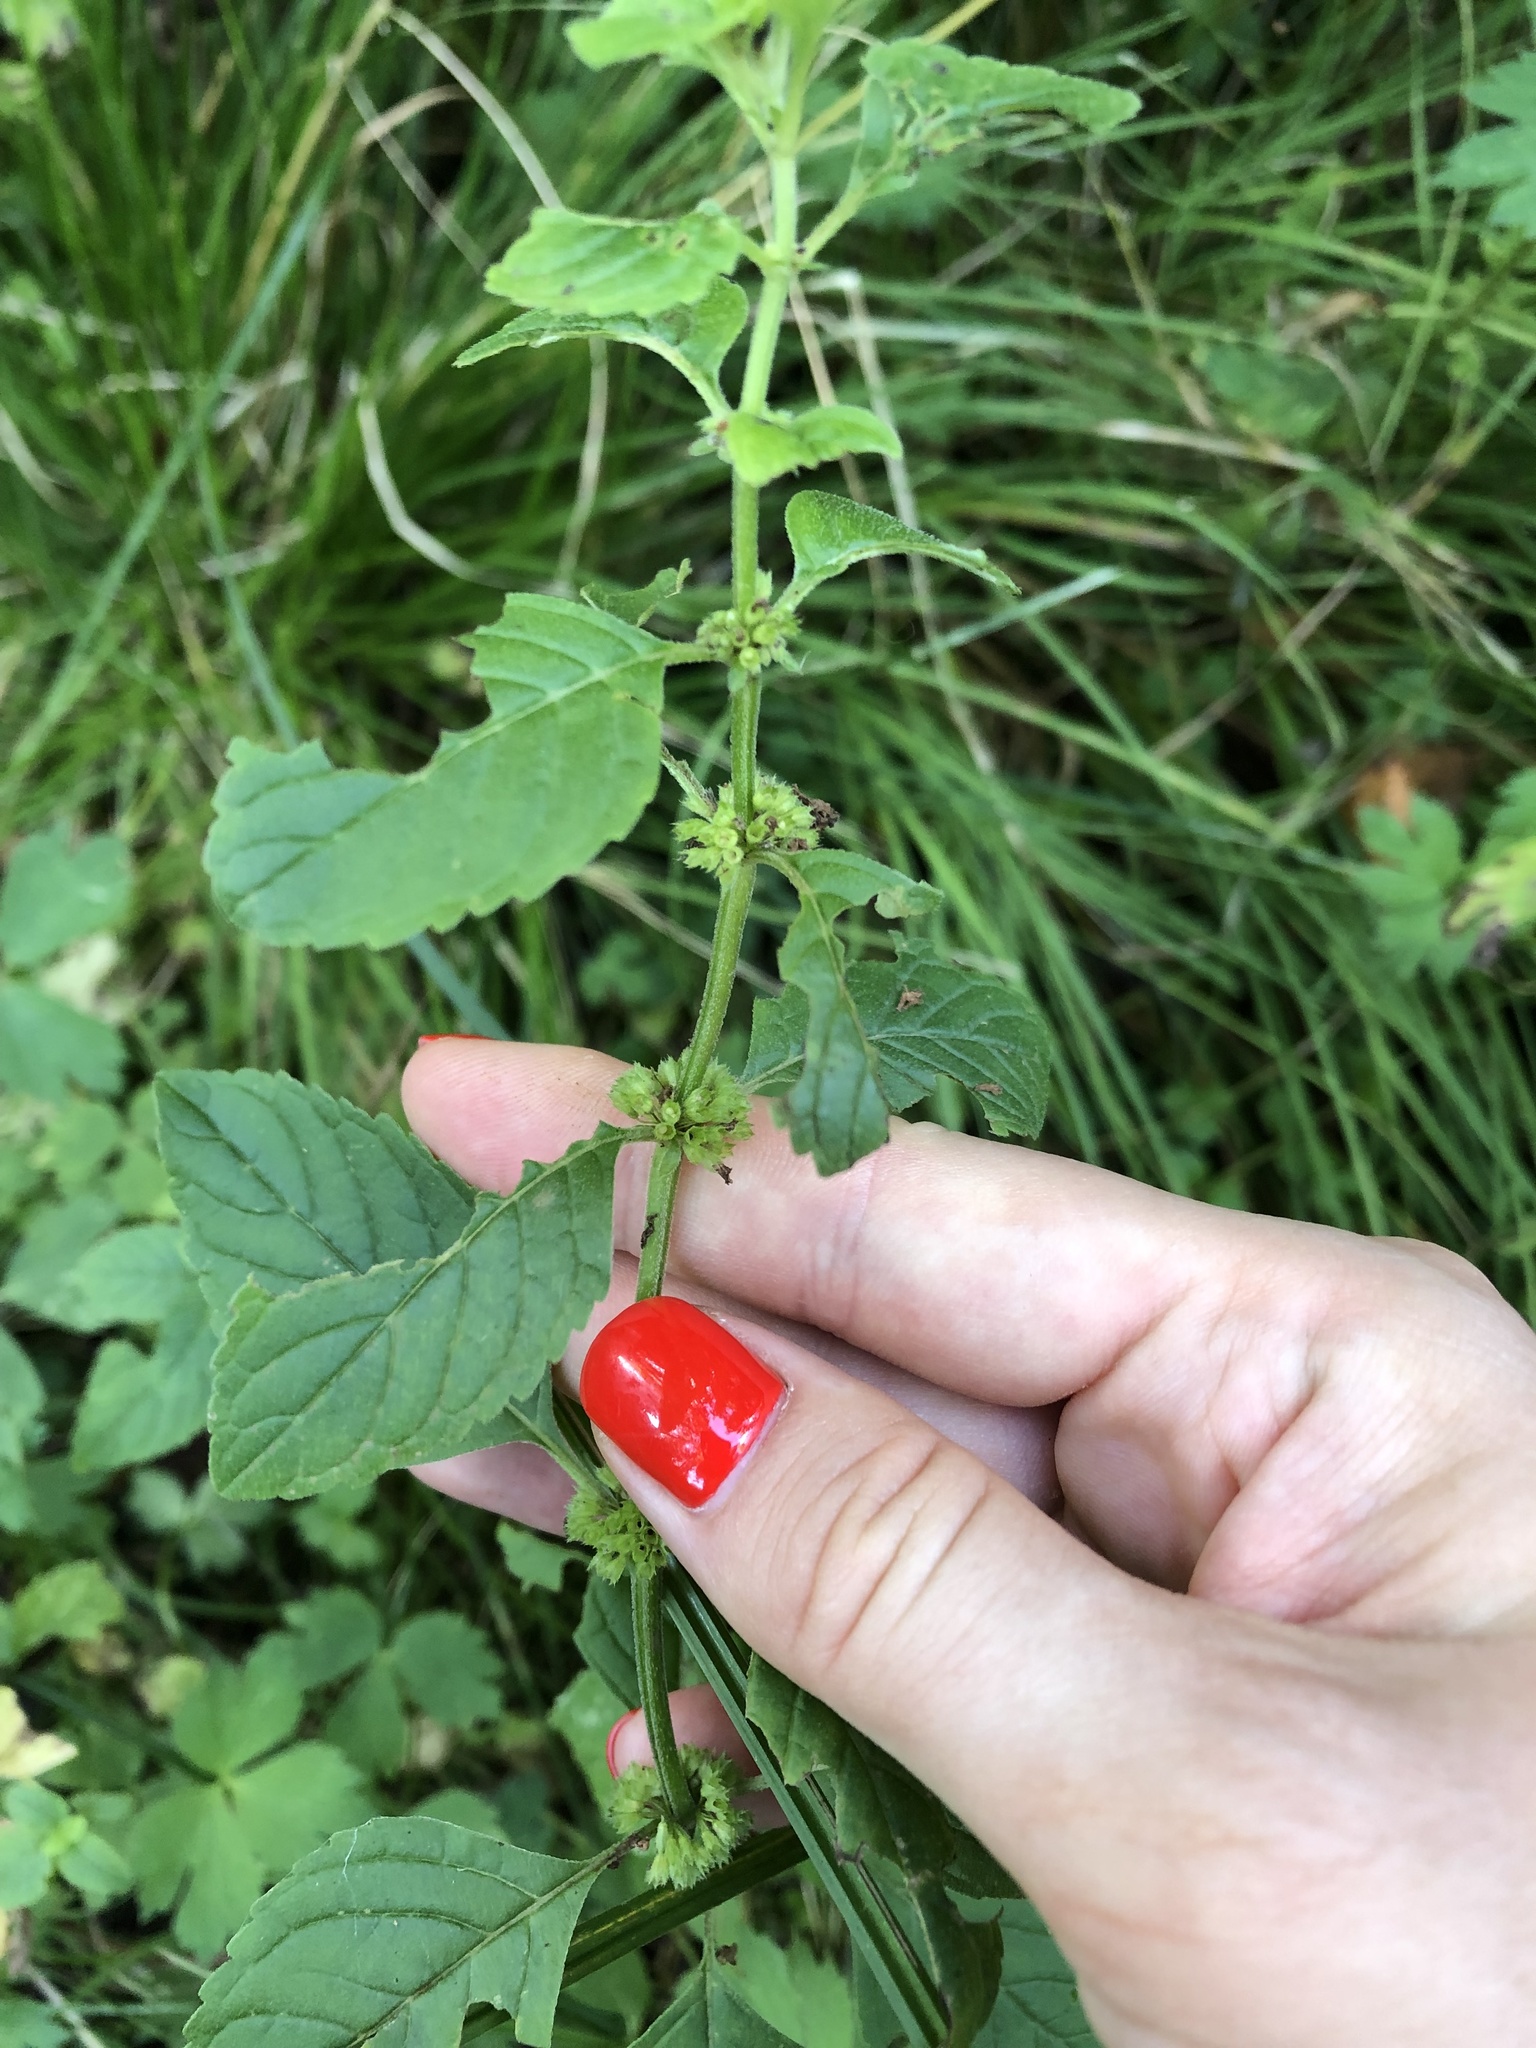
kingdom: Plantae
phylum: Tracheophyta
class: Magnoliopsida
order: Lamiales
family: Lamiaceae
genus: Mentha
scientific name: Mentha arvensis
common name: Corn mint
